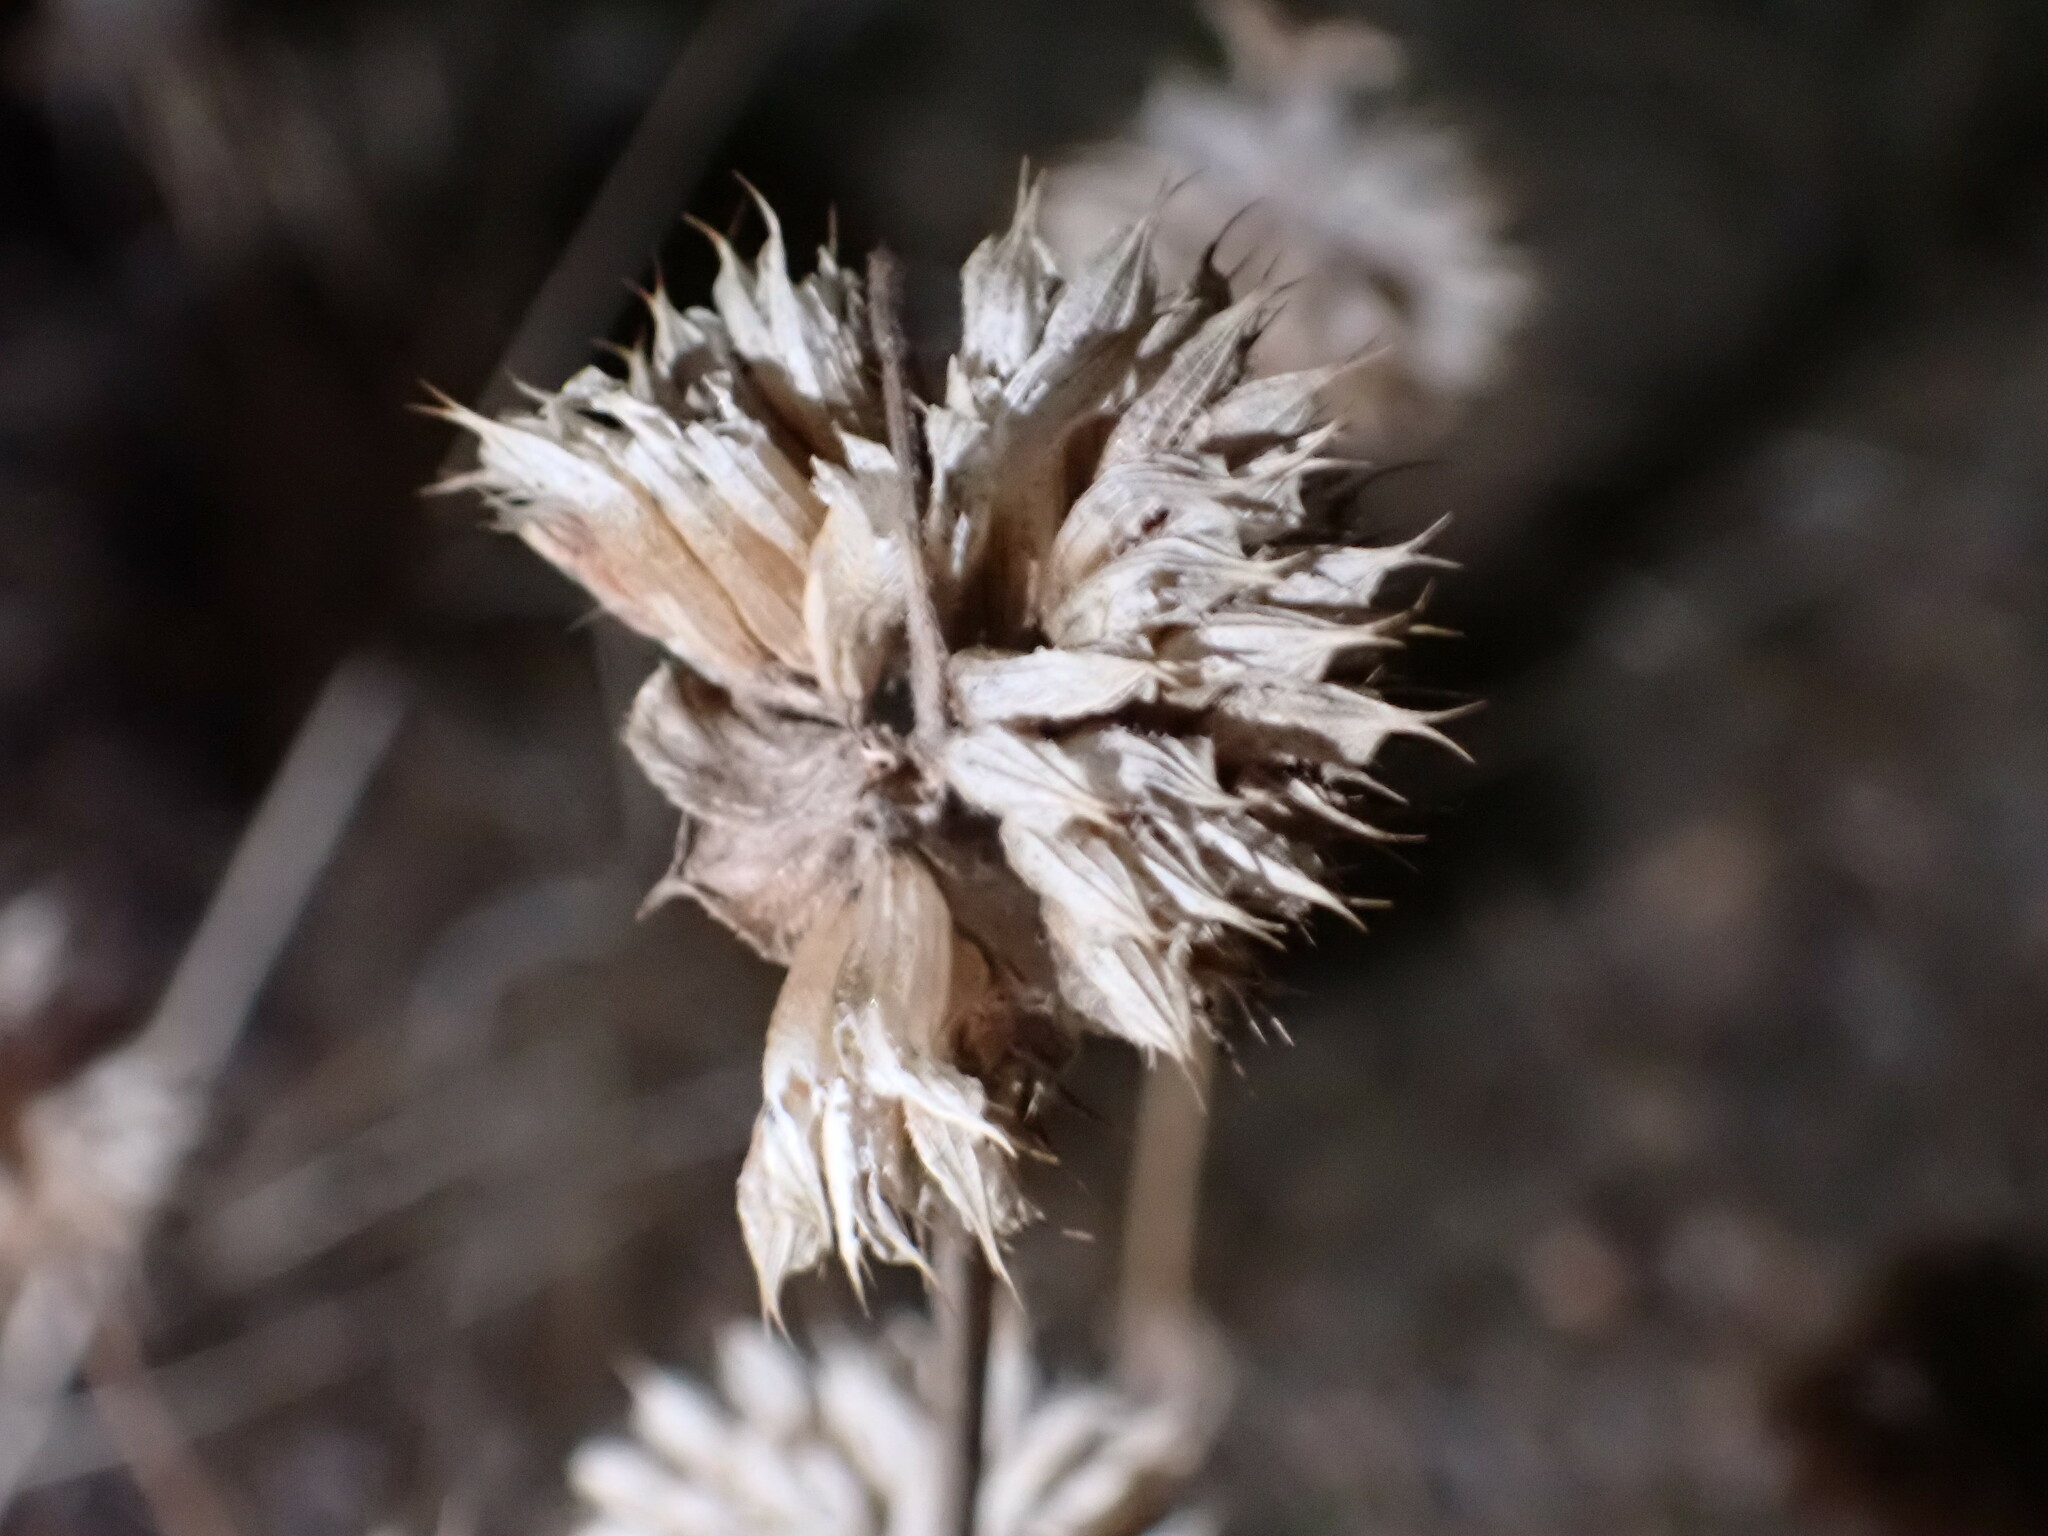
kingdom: Plantae
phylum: Tracheophyta
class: Magnoliopsida
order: Lamiales
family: Lamiaceae
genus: Salvia
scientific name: Salvia columbariae
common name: Chia
